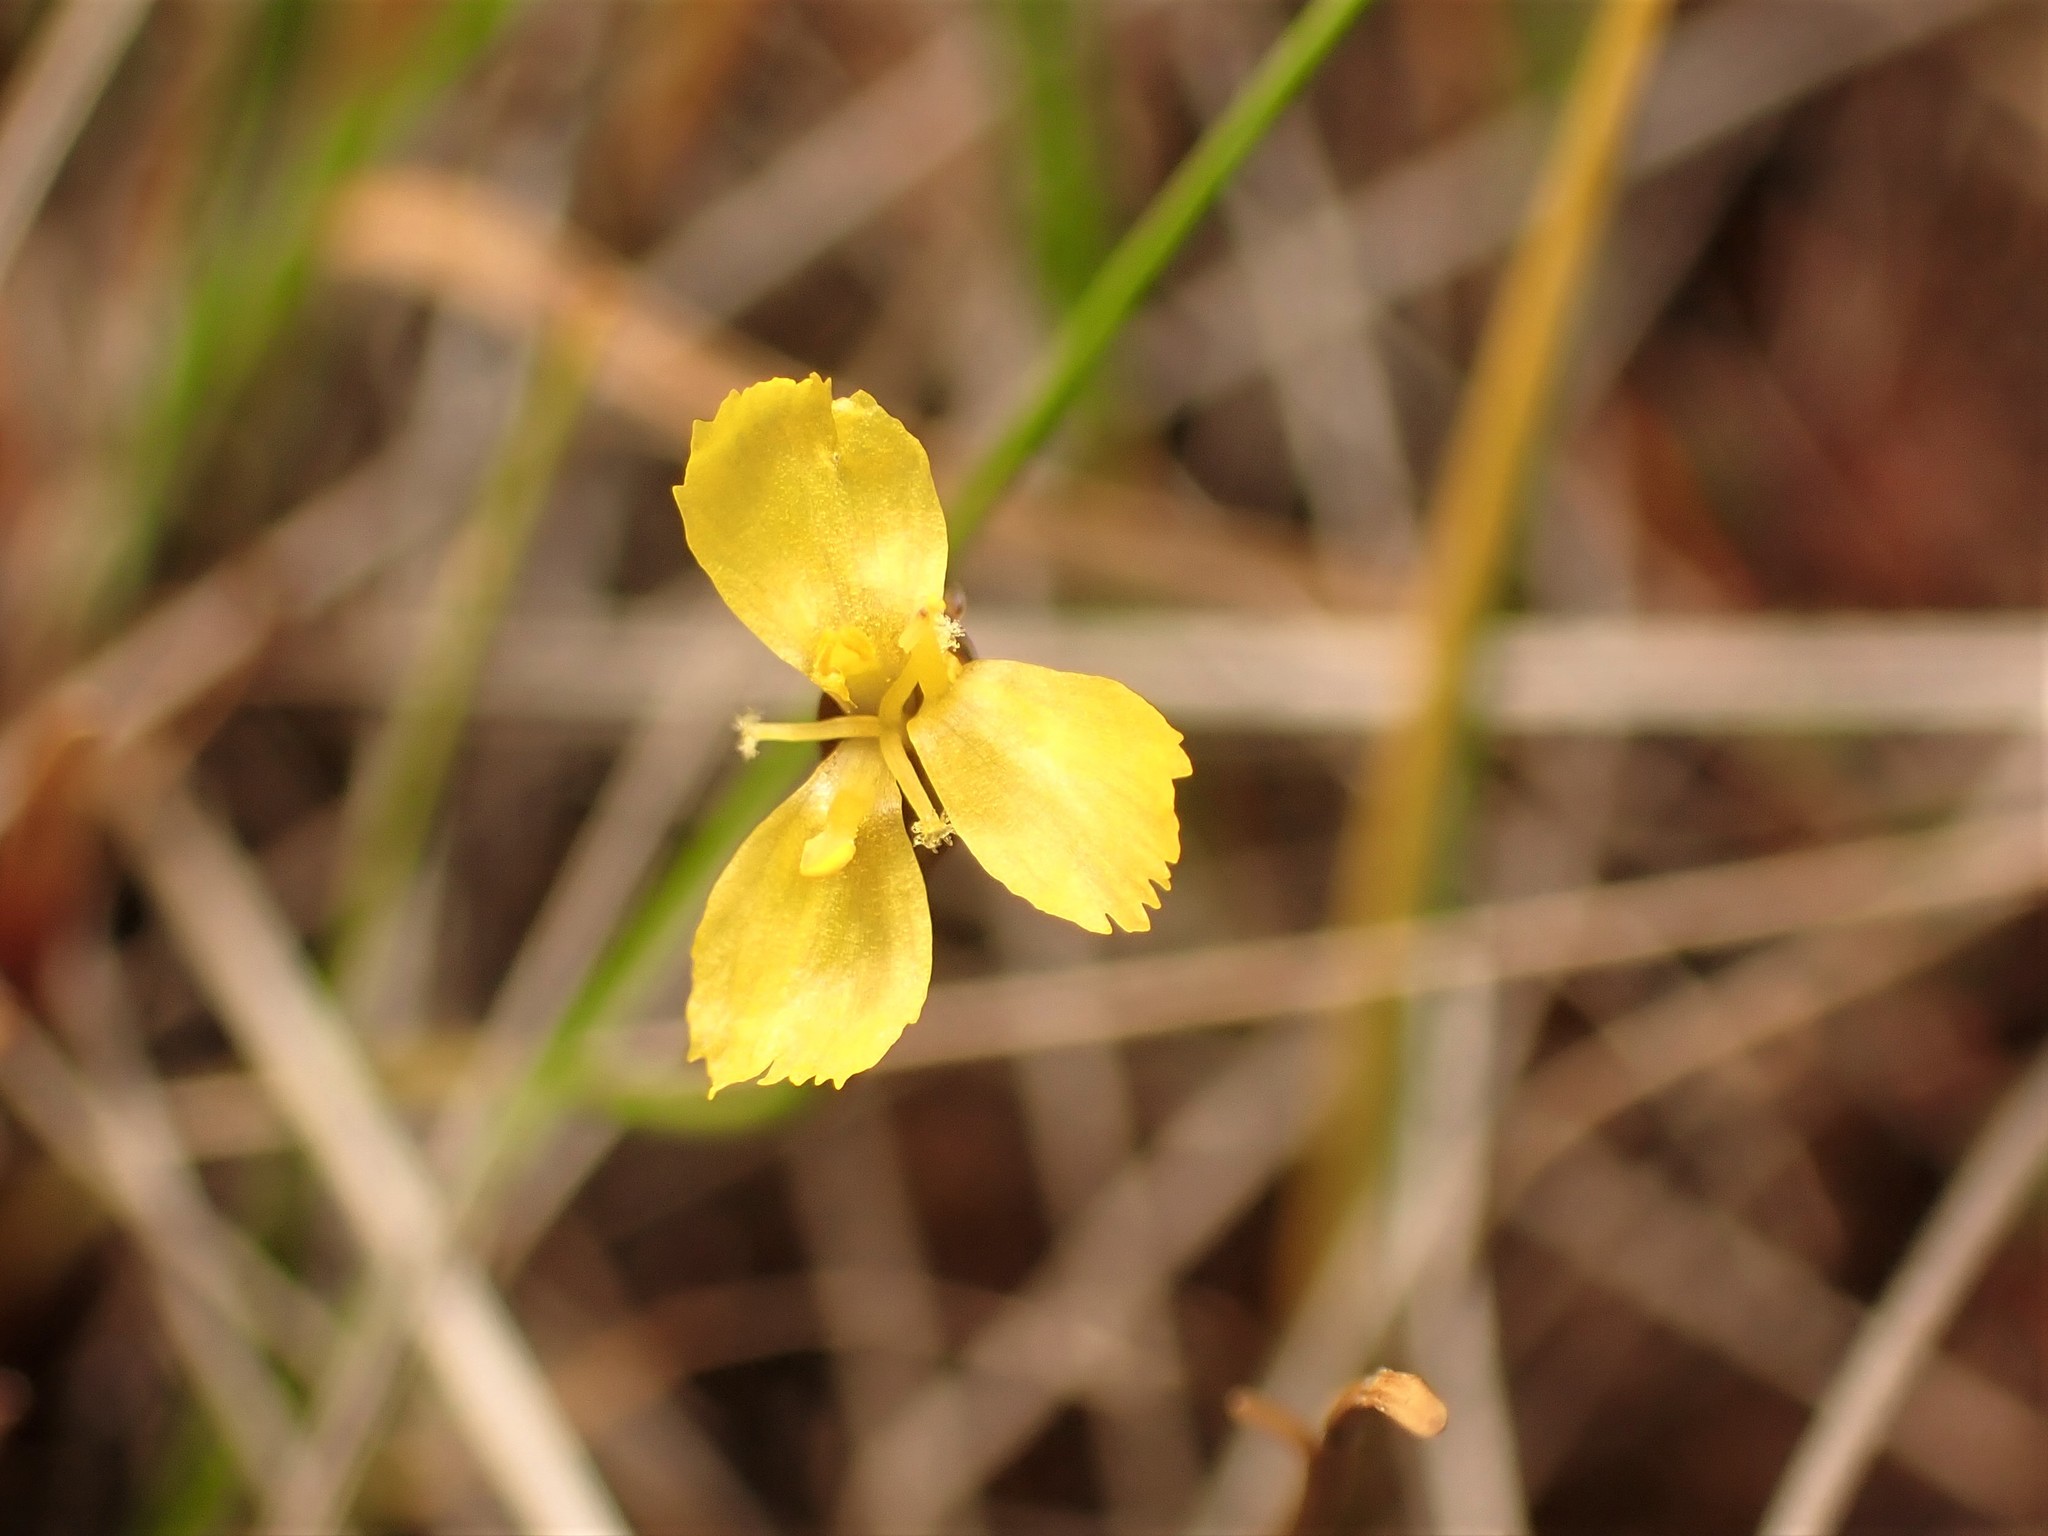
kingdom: Plantae
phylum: Tracheophyta
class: Liliopsida
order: Poales
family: Xyridaceae
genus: Xyris
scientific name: Xyris montana
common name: Northern yellow-eyed-grass
